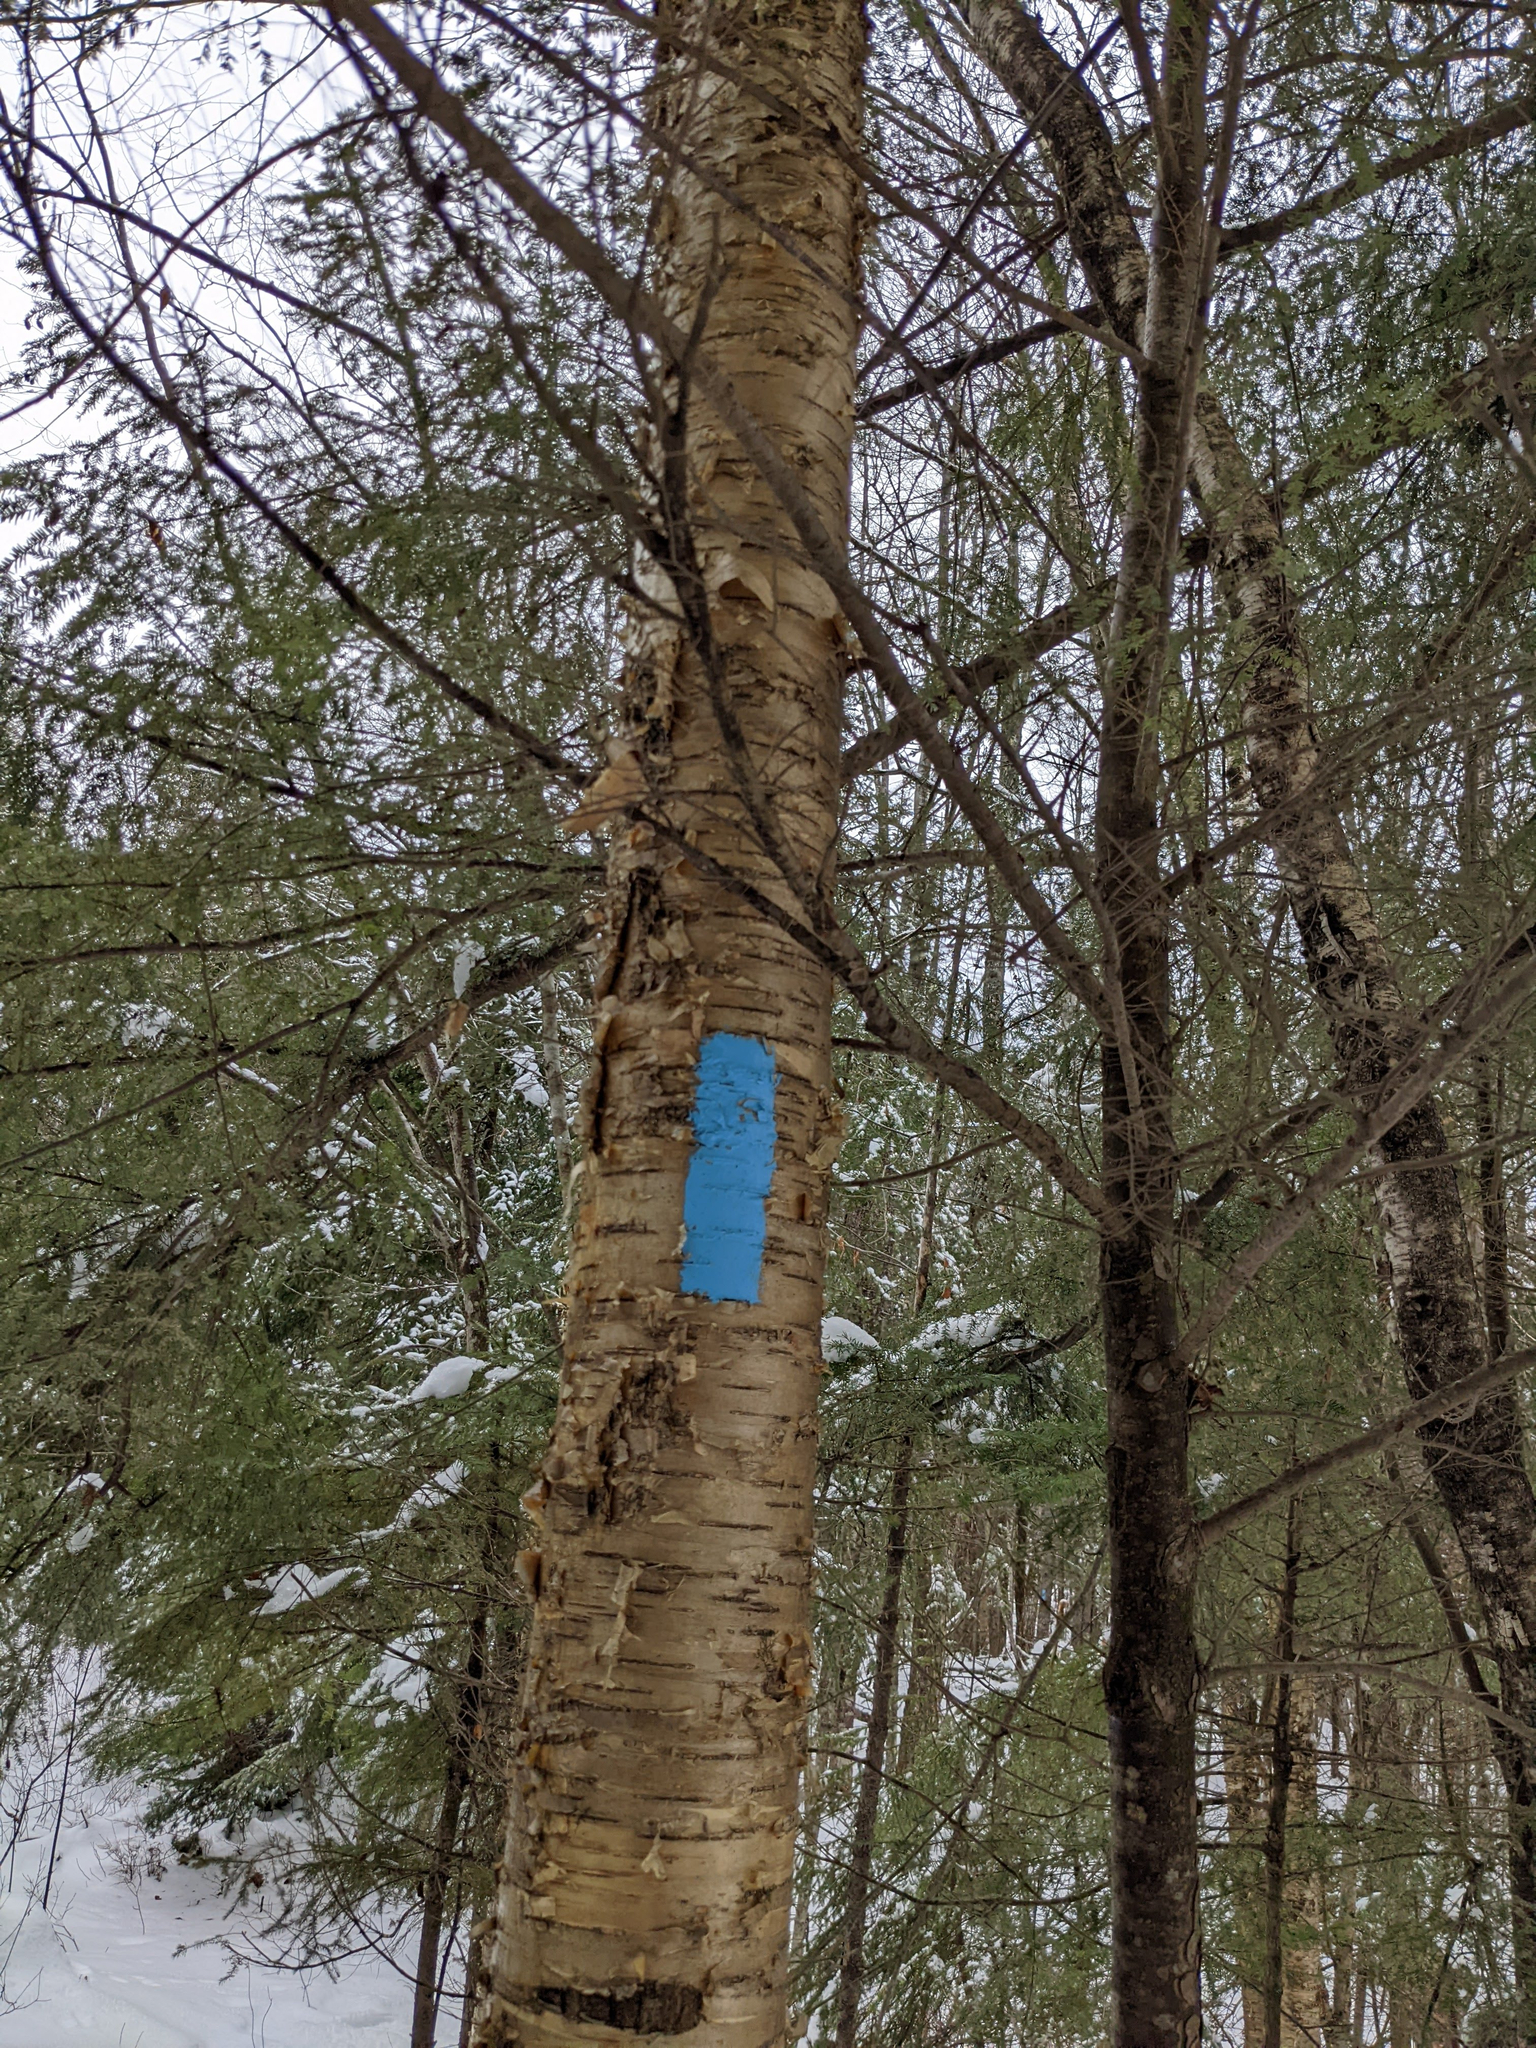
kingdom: Plantae
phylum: Tracheophyta
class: Magnoliopsida
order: Fagales
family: Betulaceae
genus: Betula
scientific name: Betula alleghaniensis
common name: Yellow birch
